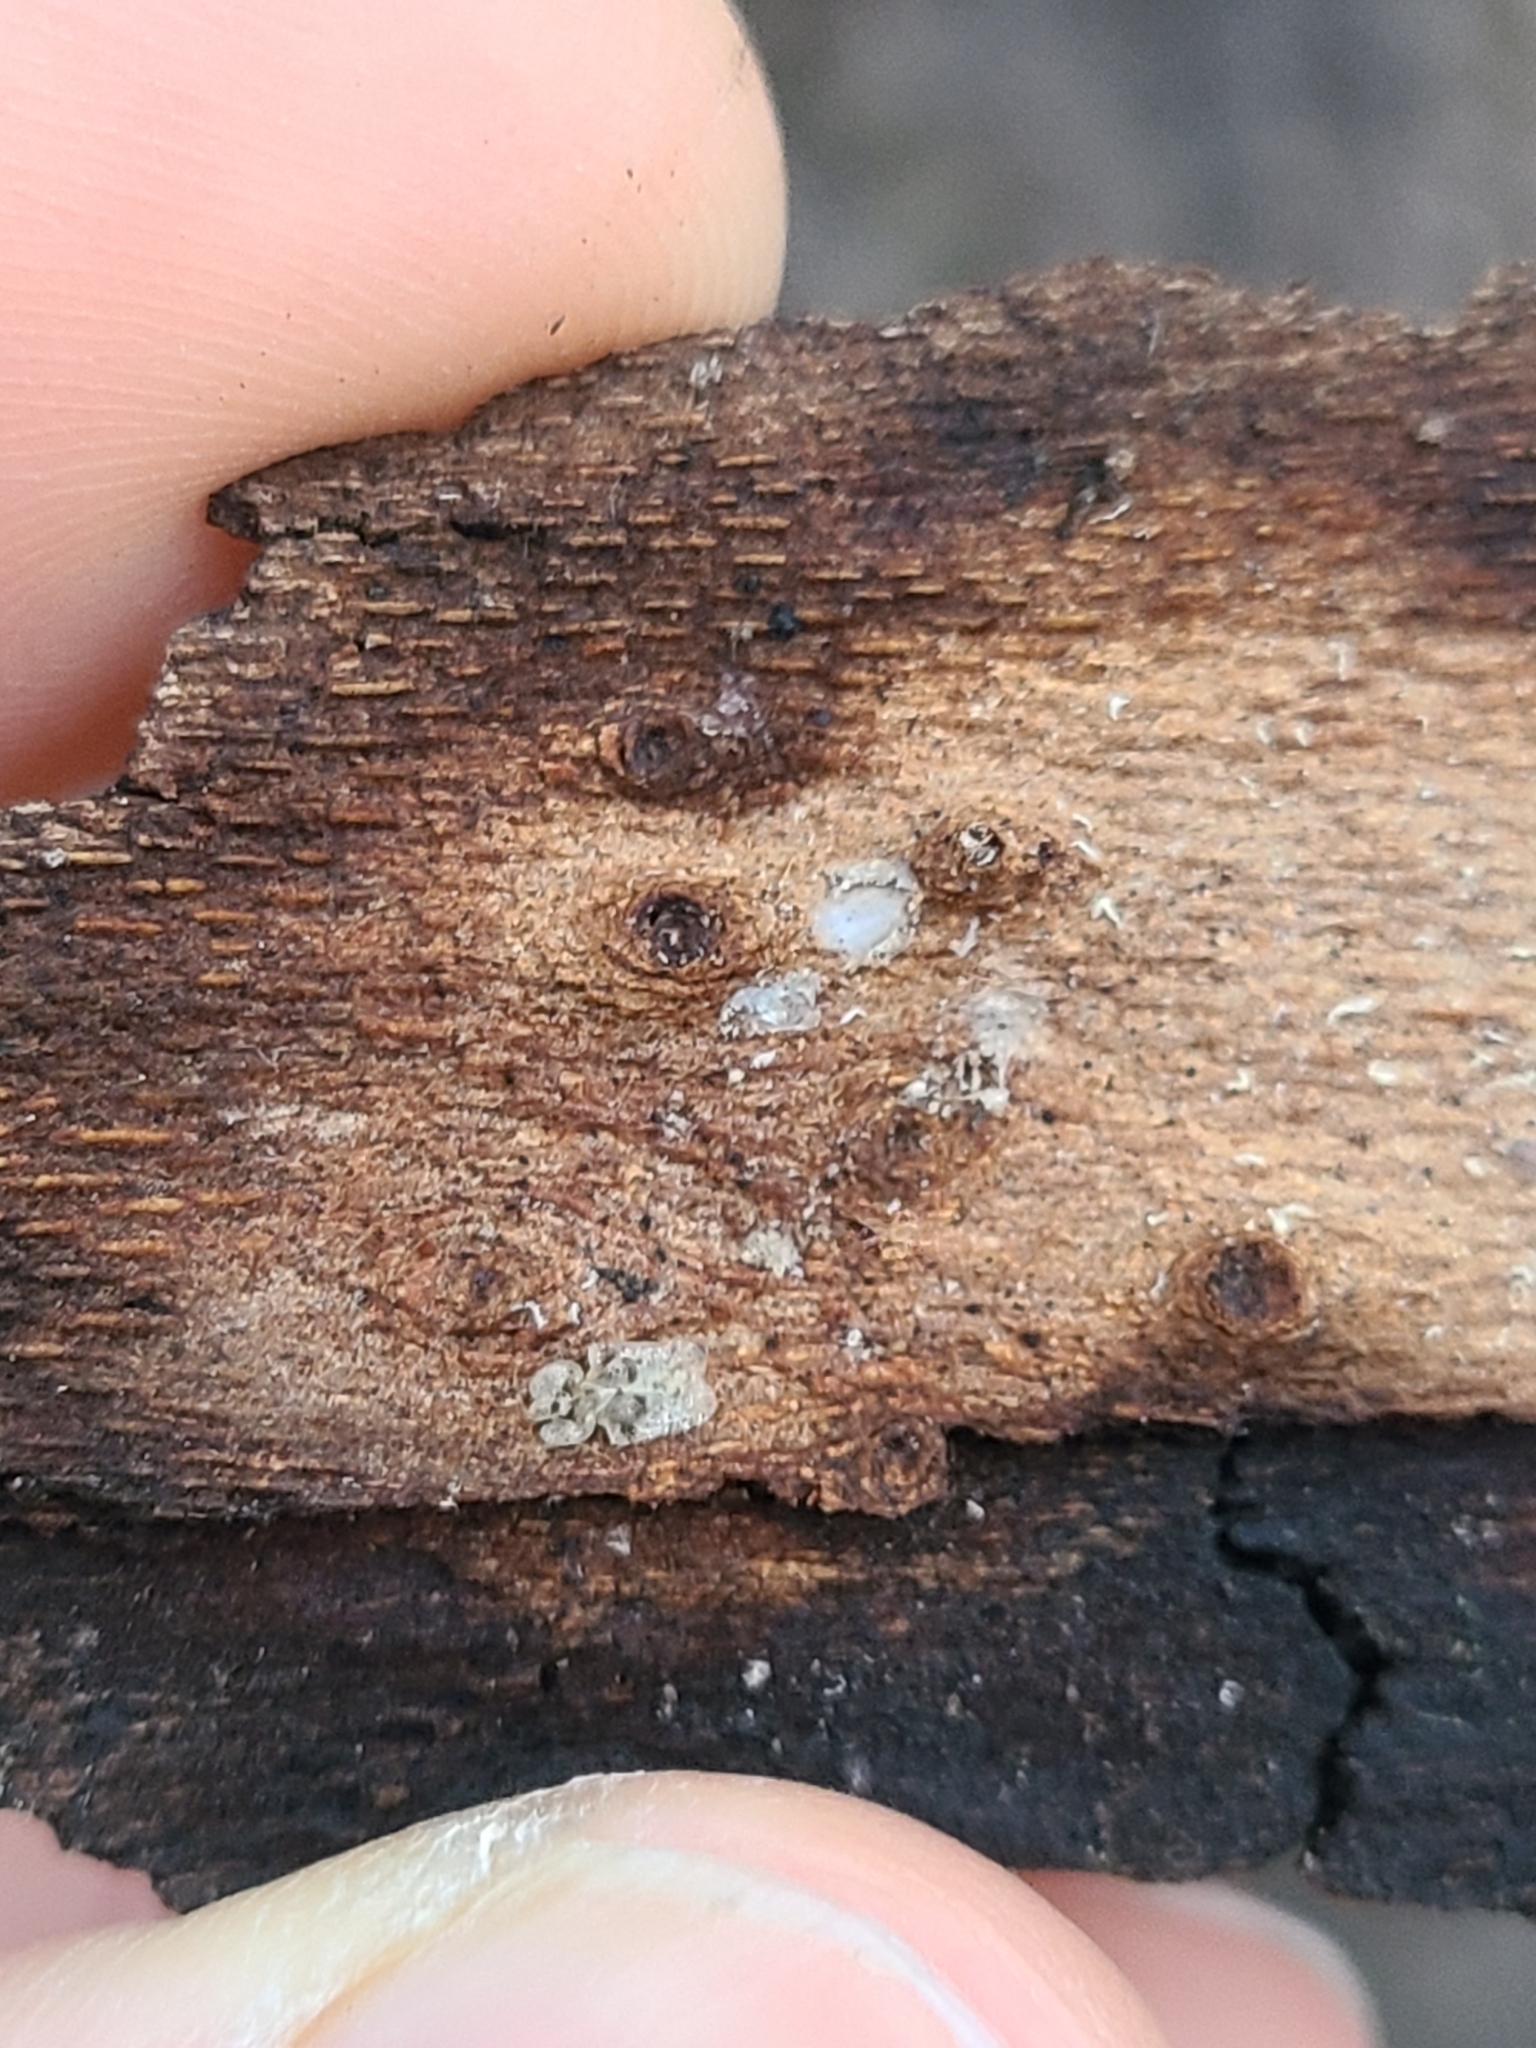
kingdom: Animalia
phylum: Arthropoda
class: Insecta
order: Hemiptera
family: Tingidae
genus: Corythucha
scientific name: Corythucha arcuata
